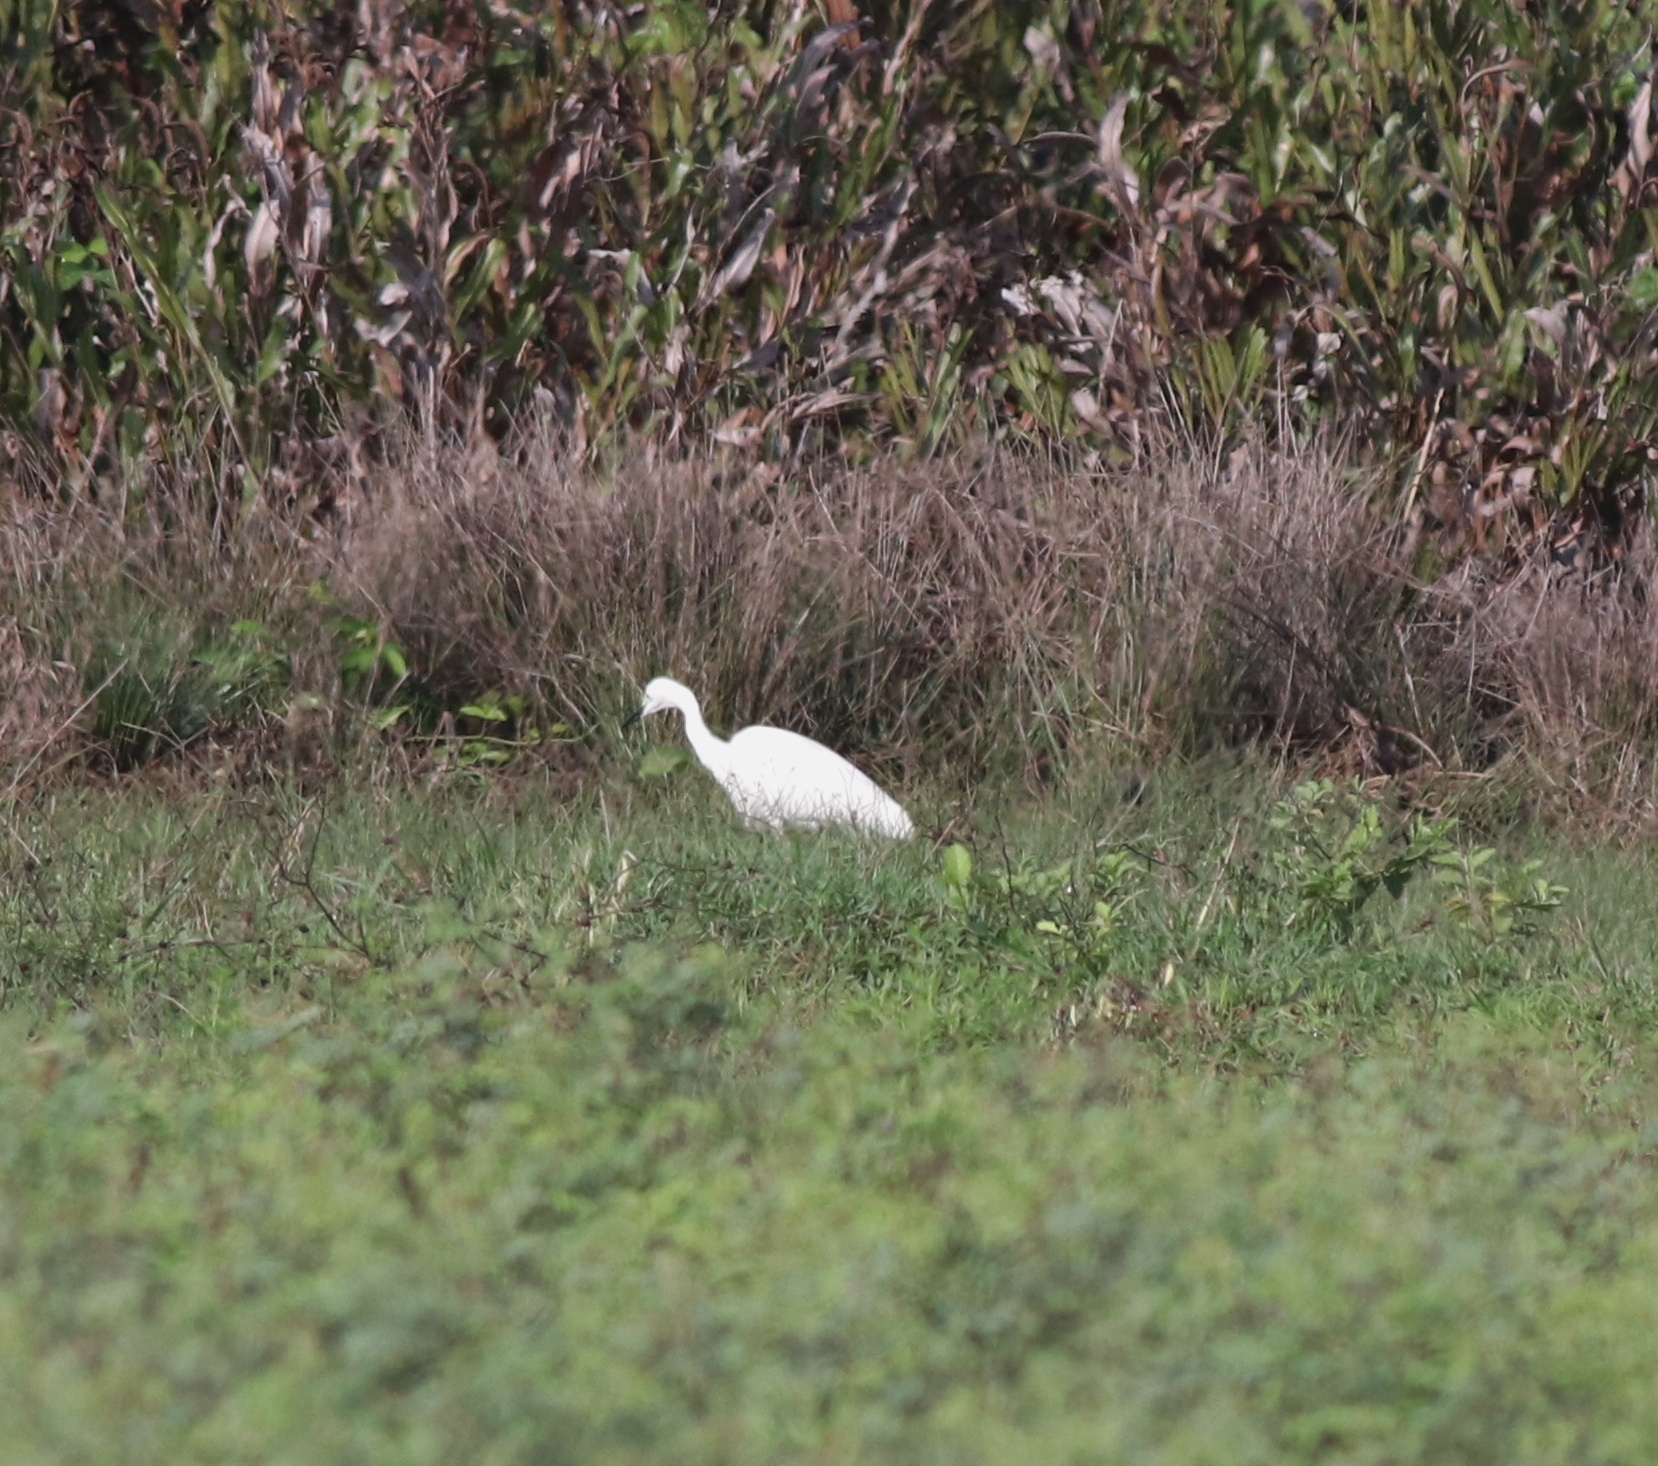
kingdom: Animalia
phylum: Chordata
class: Aves
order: Pelecaniformes
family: Ardeidae
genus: Egretta
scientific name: Egretta intermedia
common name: Intermediate egret
